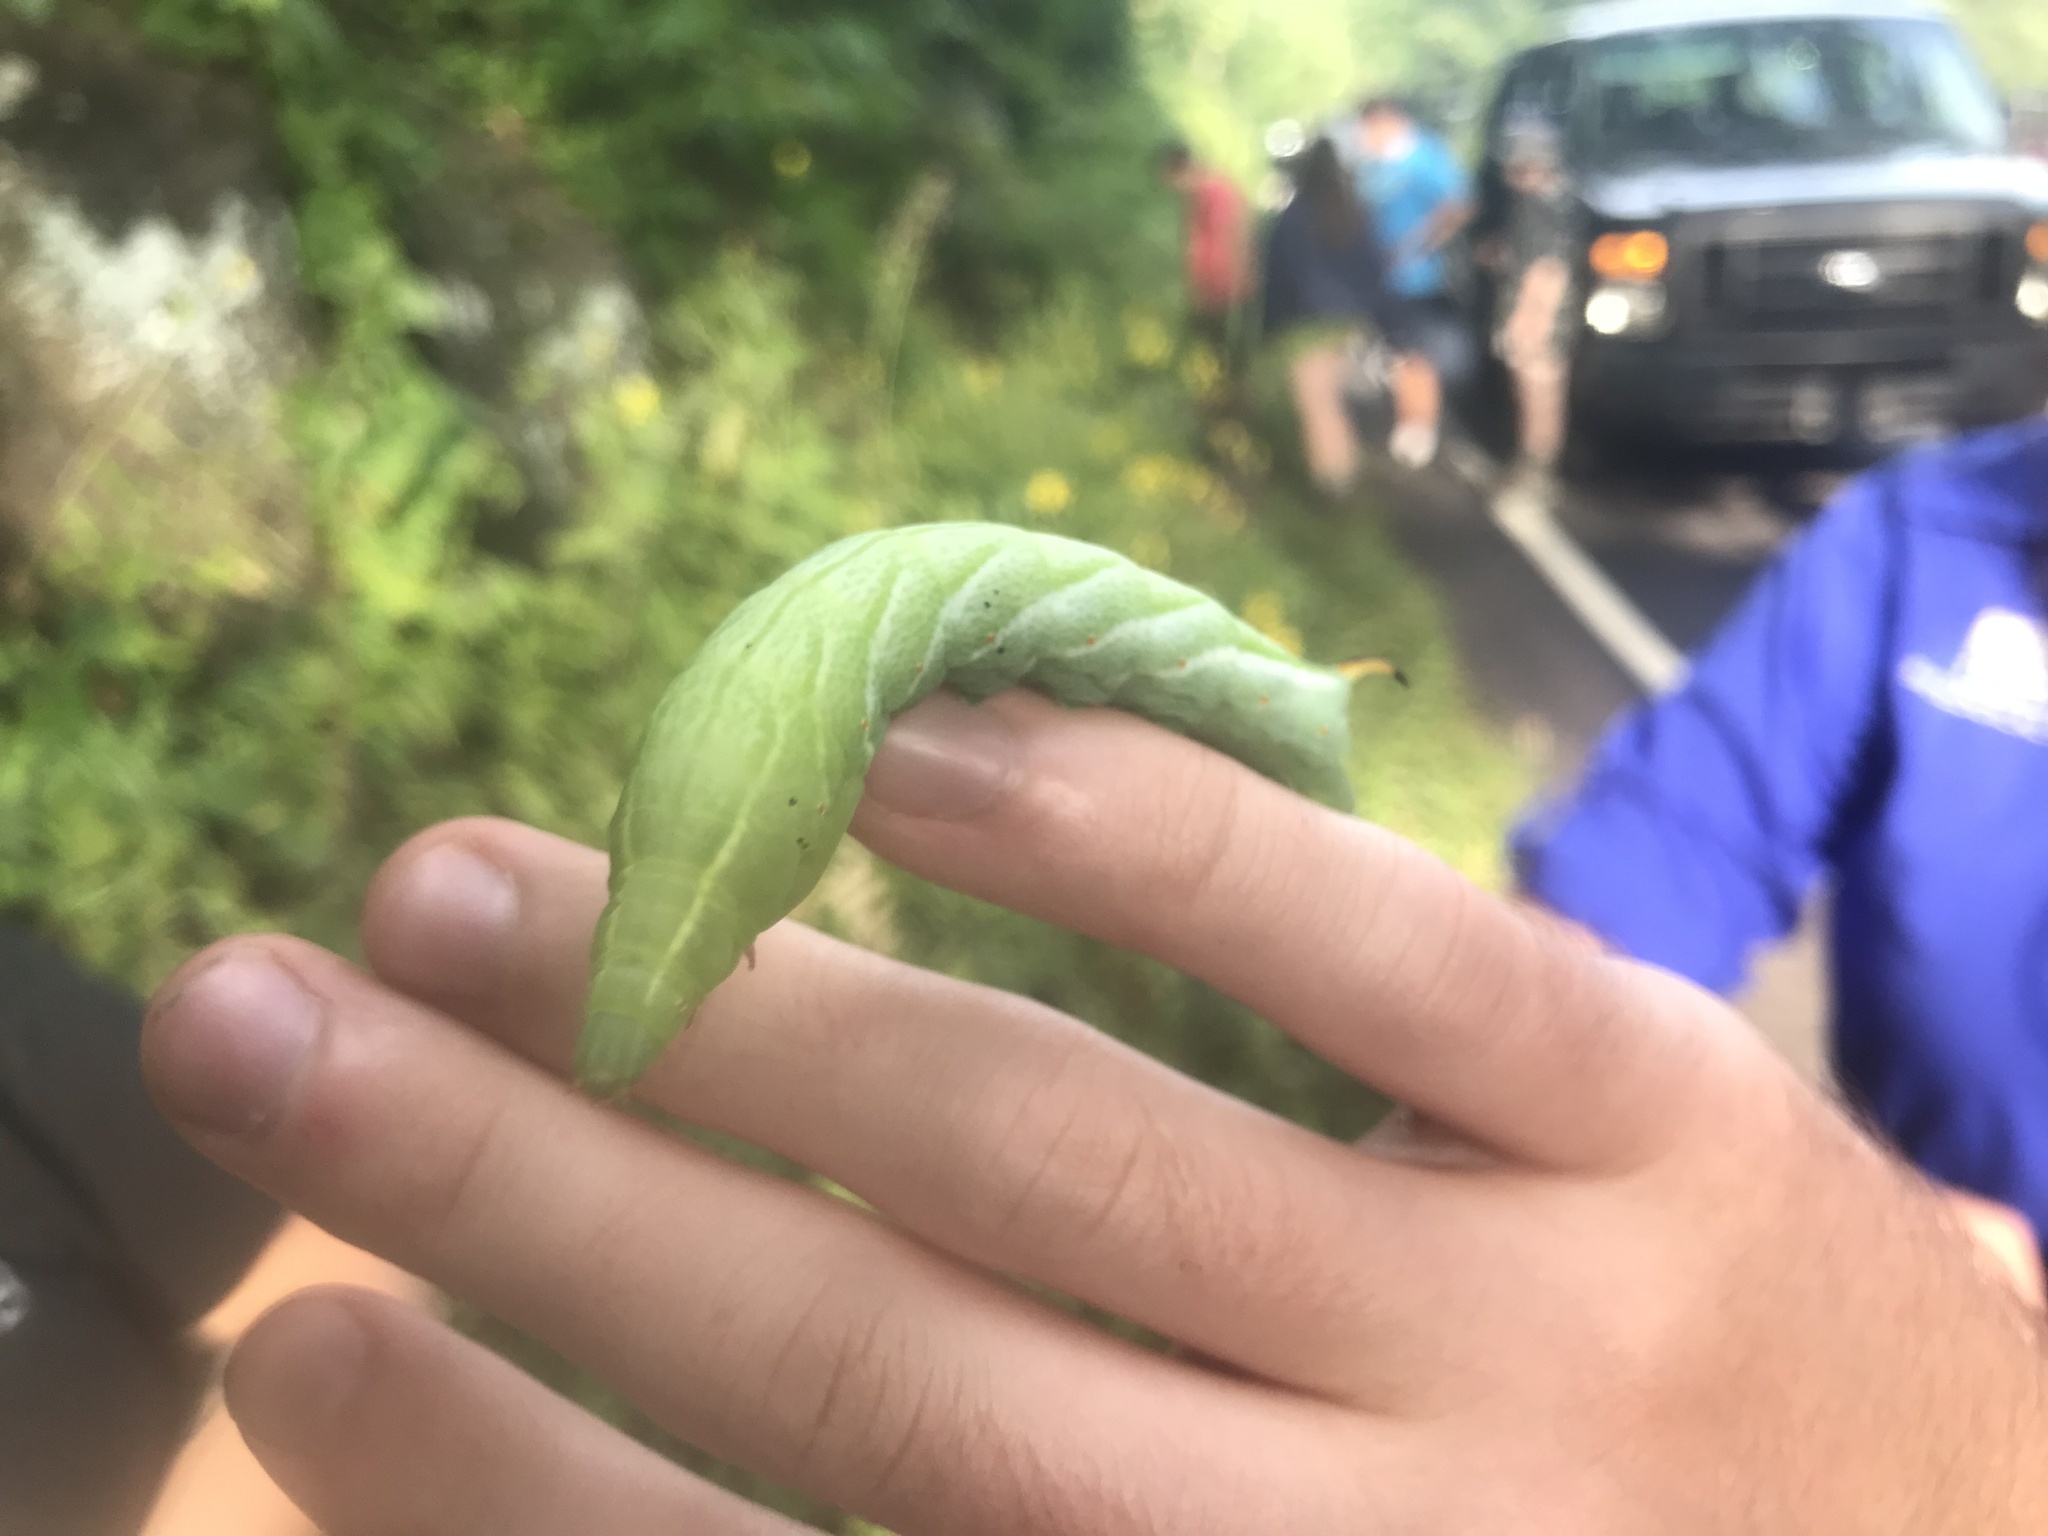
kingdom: Animalia
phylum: Arthropoda
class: Insecta
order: Lepidoptera
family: Sphingidae
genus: Darapsa
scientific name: Darapsa versicolor
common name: Hydrangea sphinx
